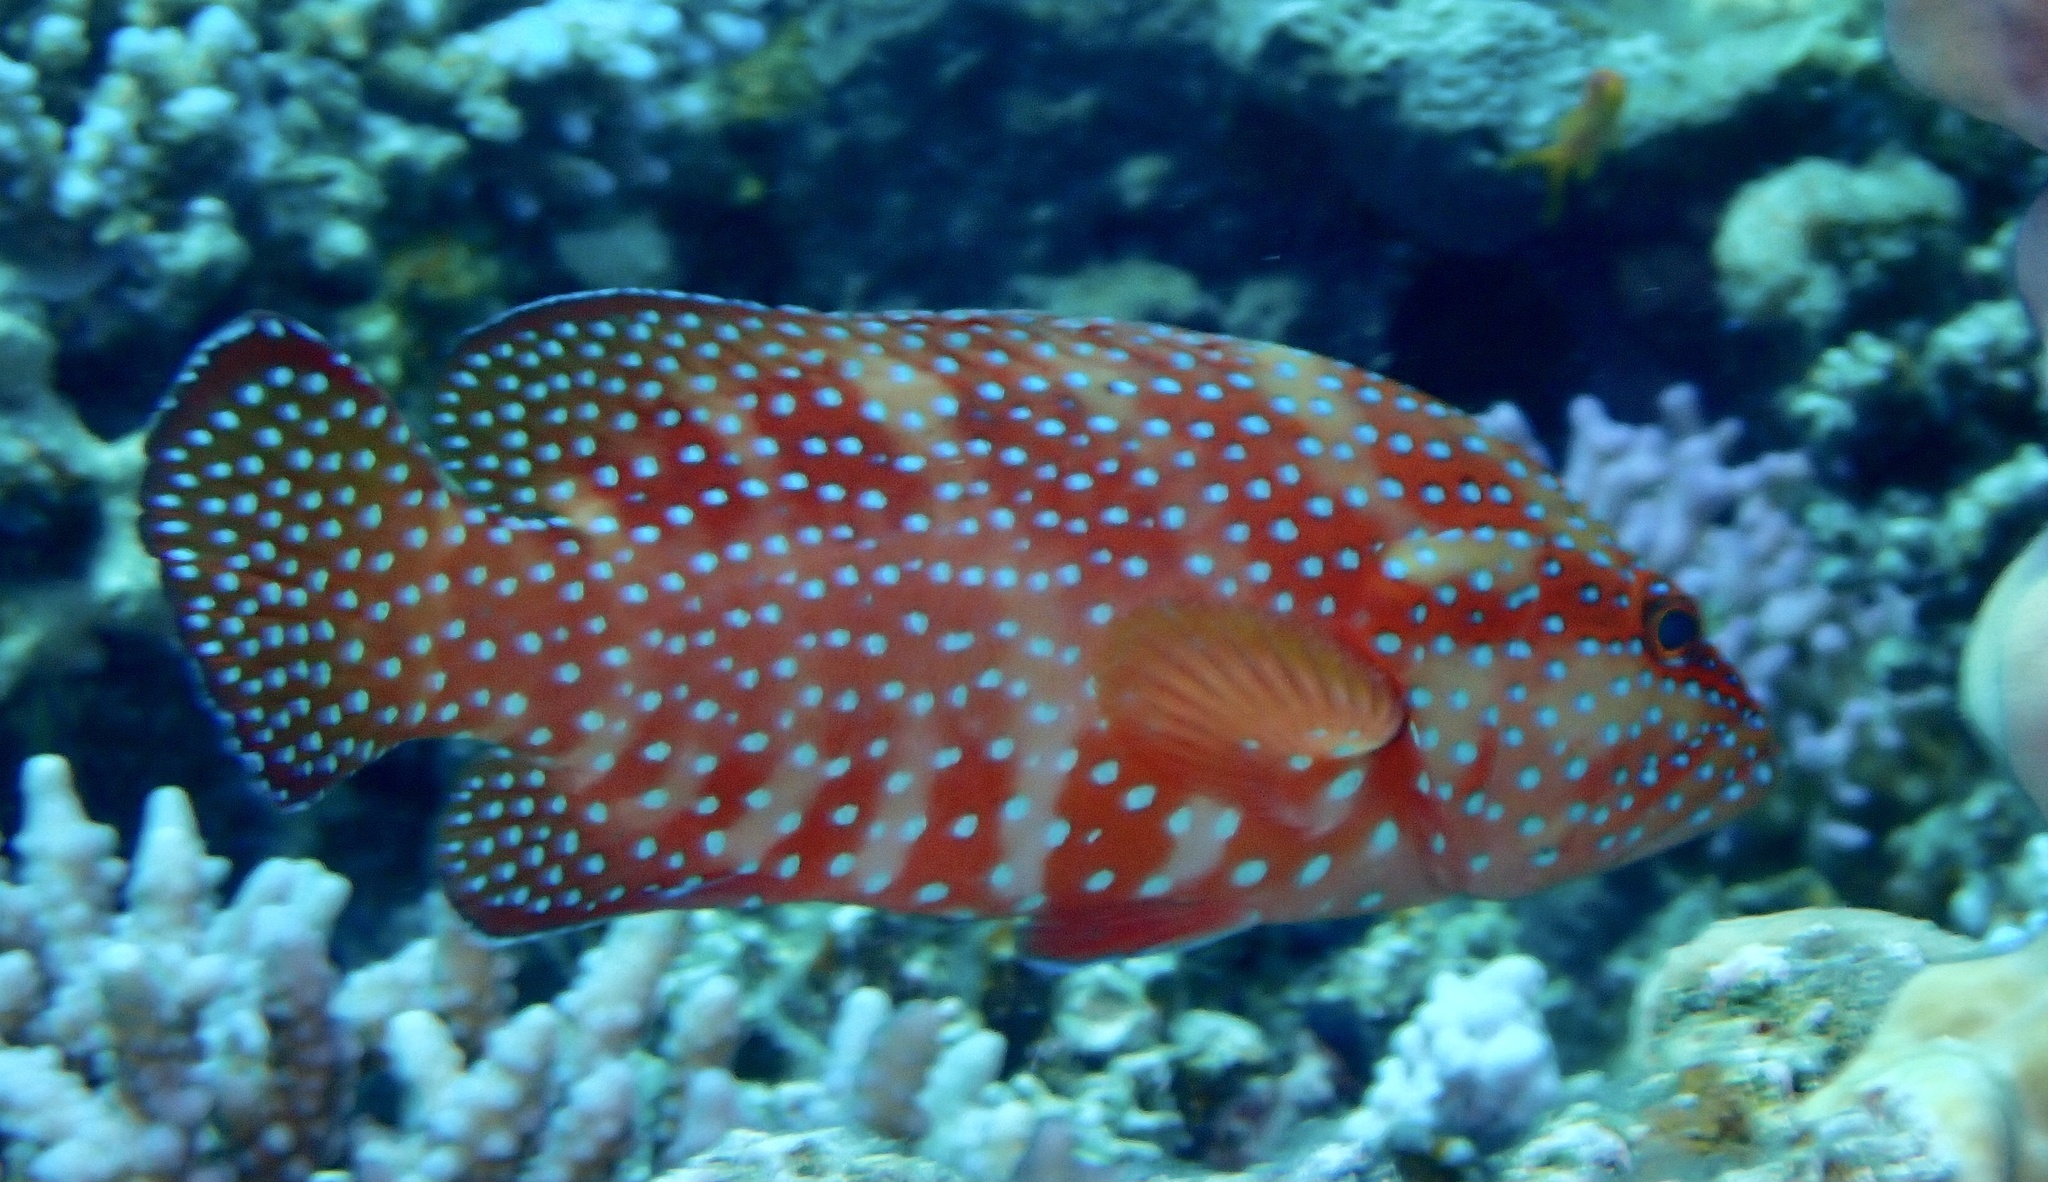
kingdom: Animalia
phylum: Chordata
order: Perciformes
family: Serranidae
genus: Cephalopholis
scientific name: Cephalopholis miniata
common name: Coral hind
